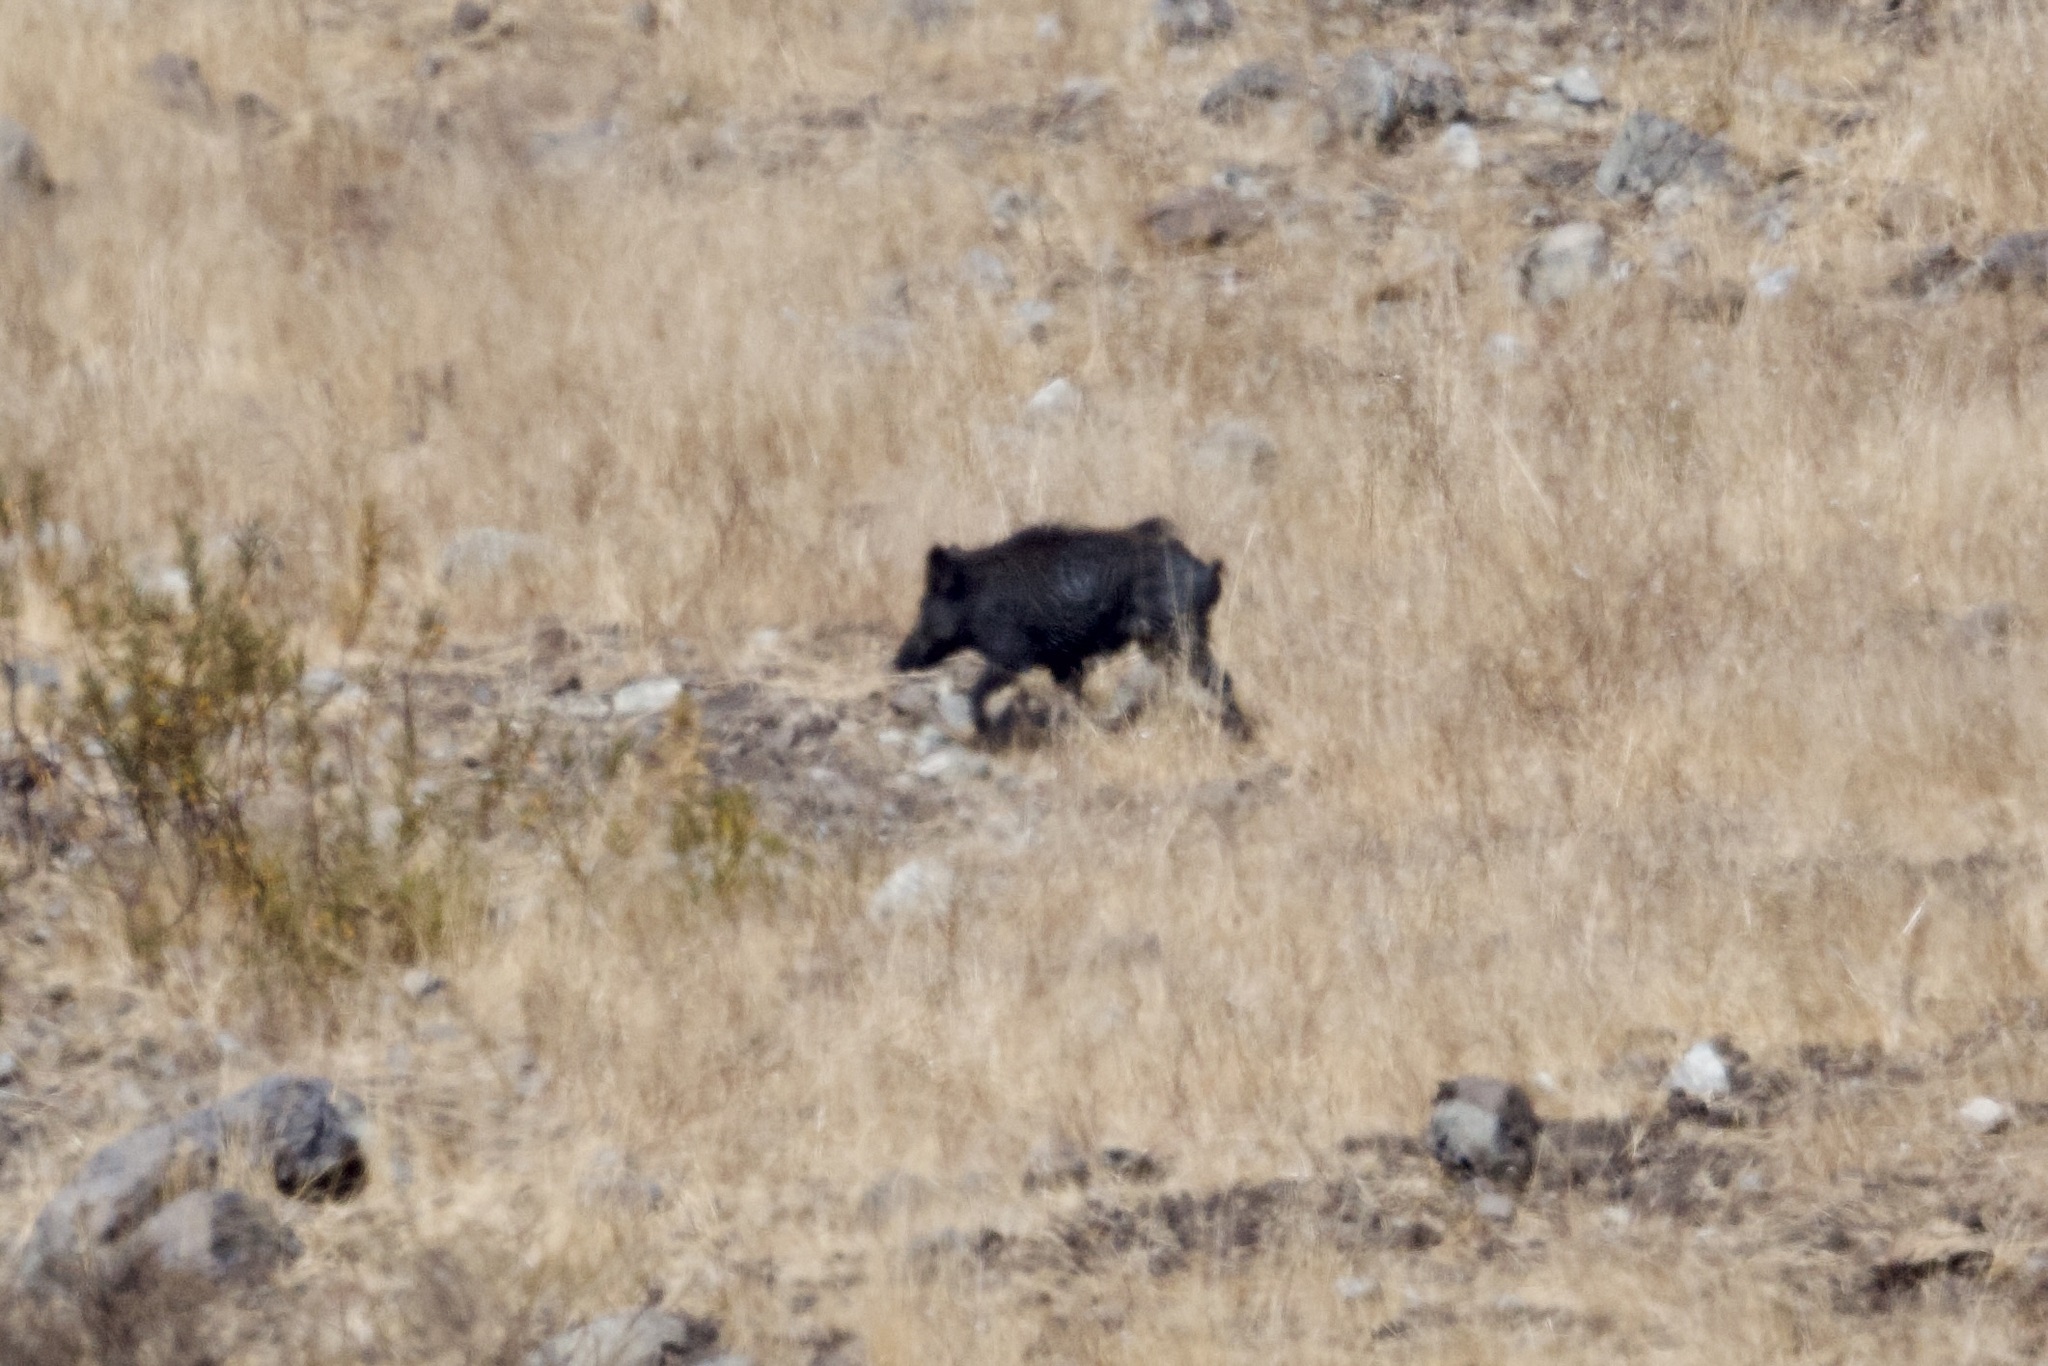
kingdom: Animalia
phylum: Chordata
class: Mammalia
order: Artiodactyla
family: Suidae
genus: Sus
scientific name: Sus scrofa
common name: Wild boar
